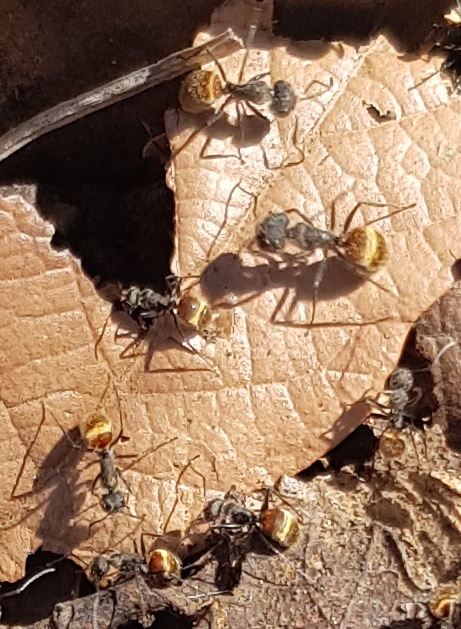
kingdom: Animalia
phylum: Arthropoda
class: Insecta
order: Hymenoptera
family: Formicidae
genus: Camponotus
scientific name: Camponotus mus
